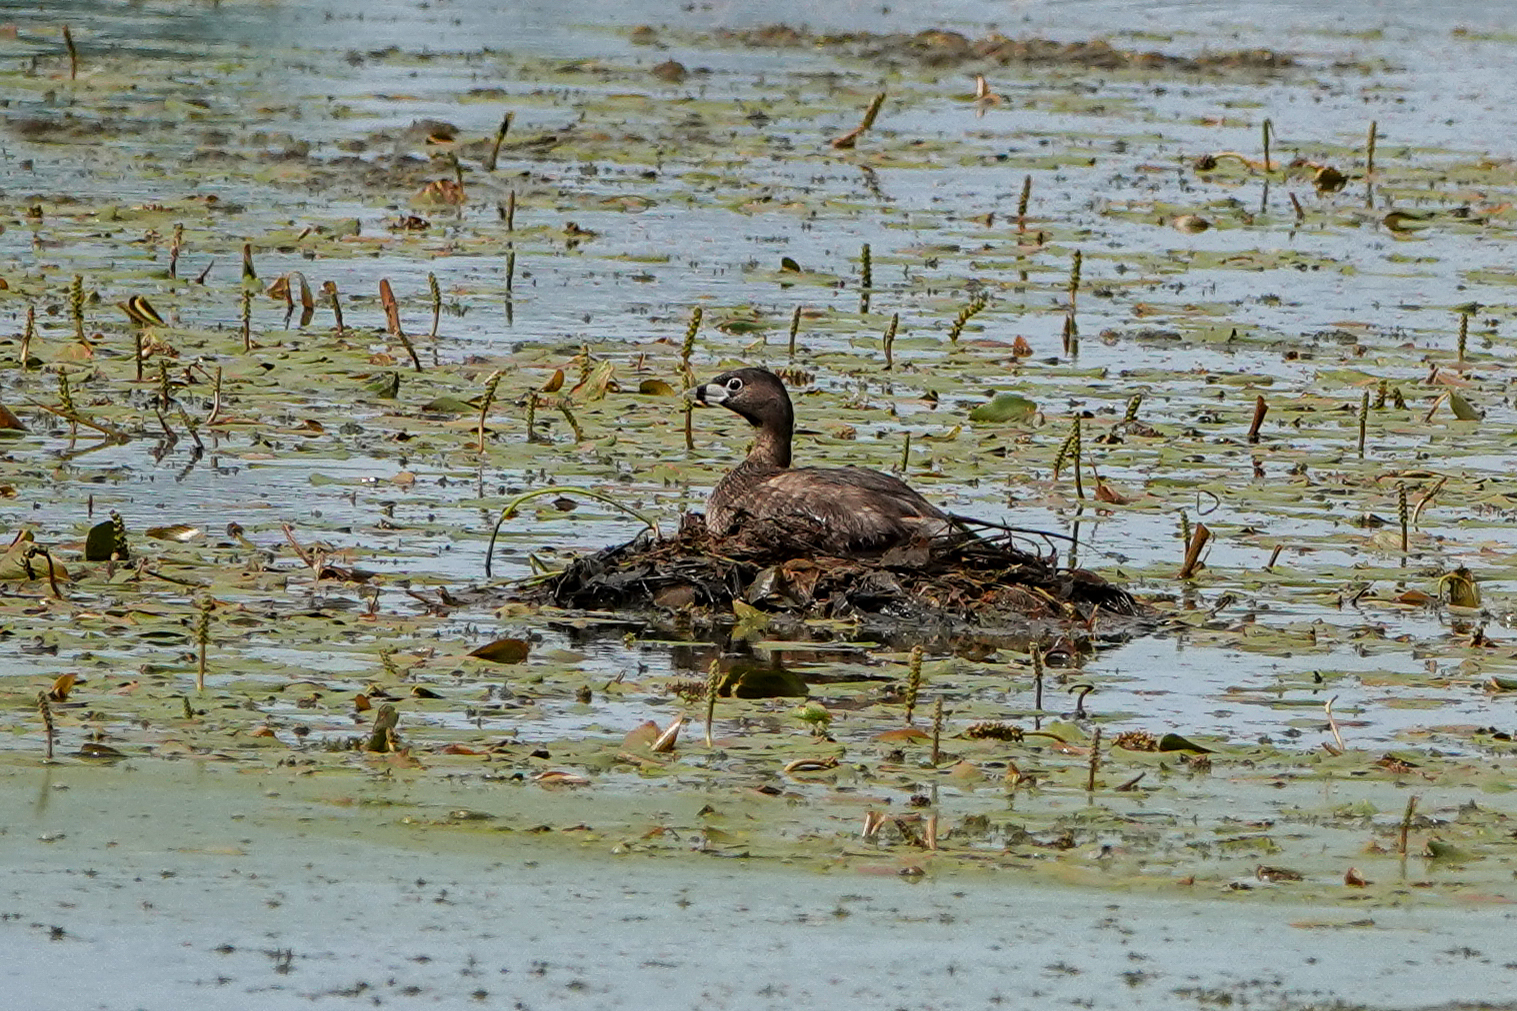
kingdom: Animalia
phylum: Chordata
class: Aves
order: Podicipediformes
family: Podicipedidae
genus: Podilymbus
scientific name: Podilymbus podiceps
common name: Pied-billed grebe
